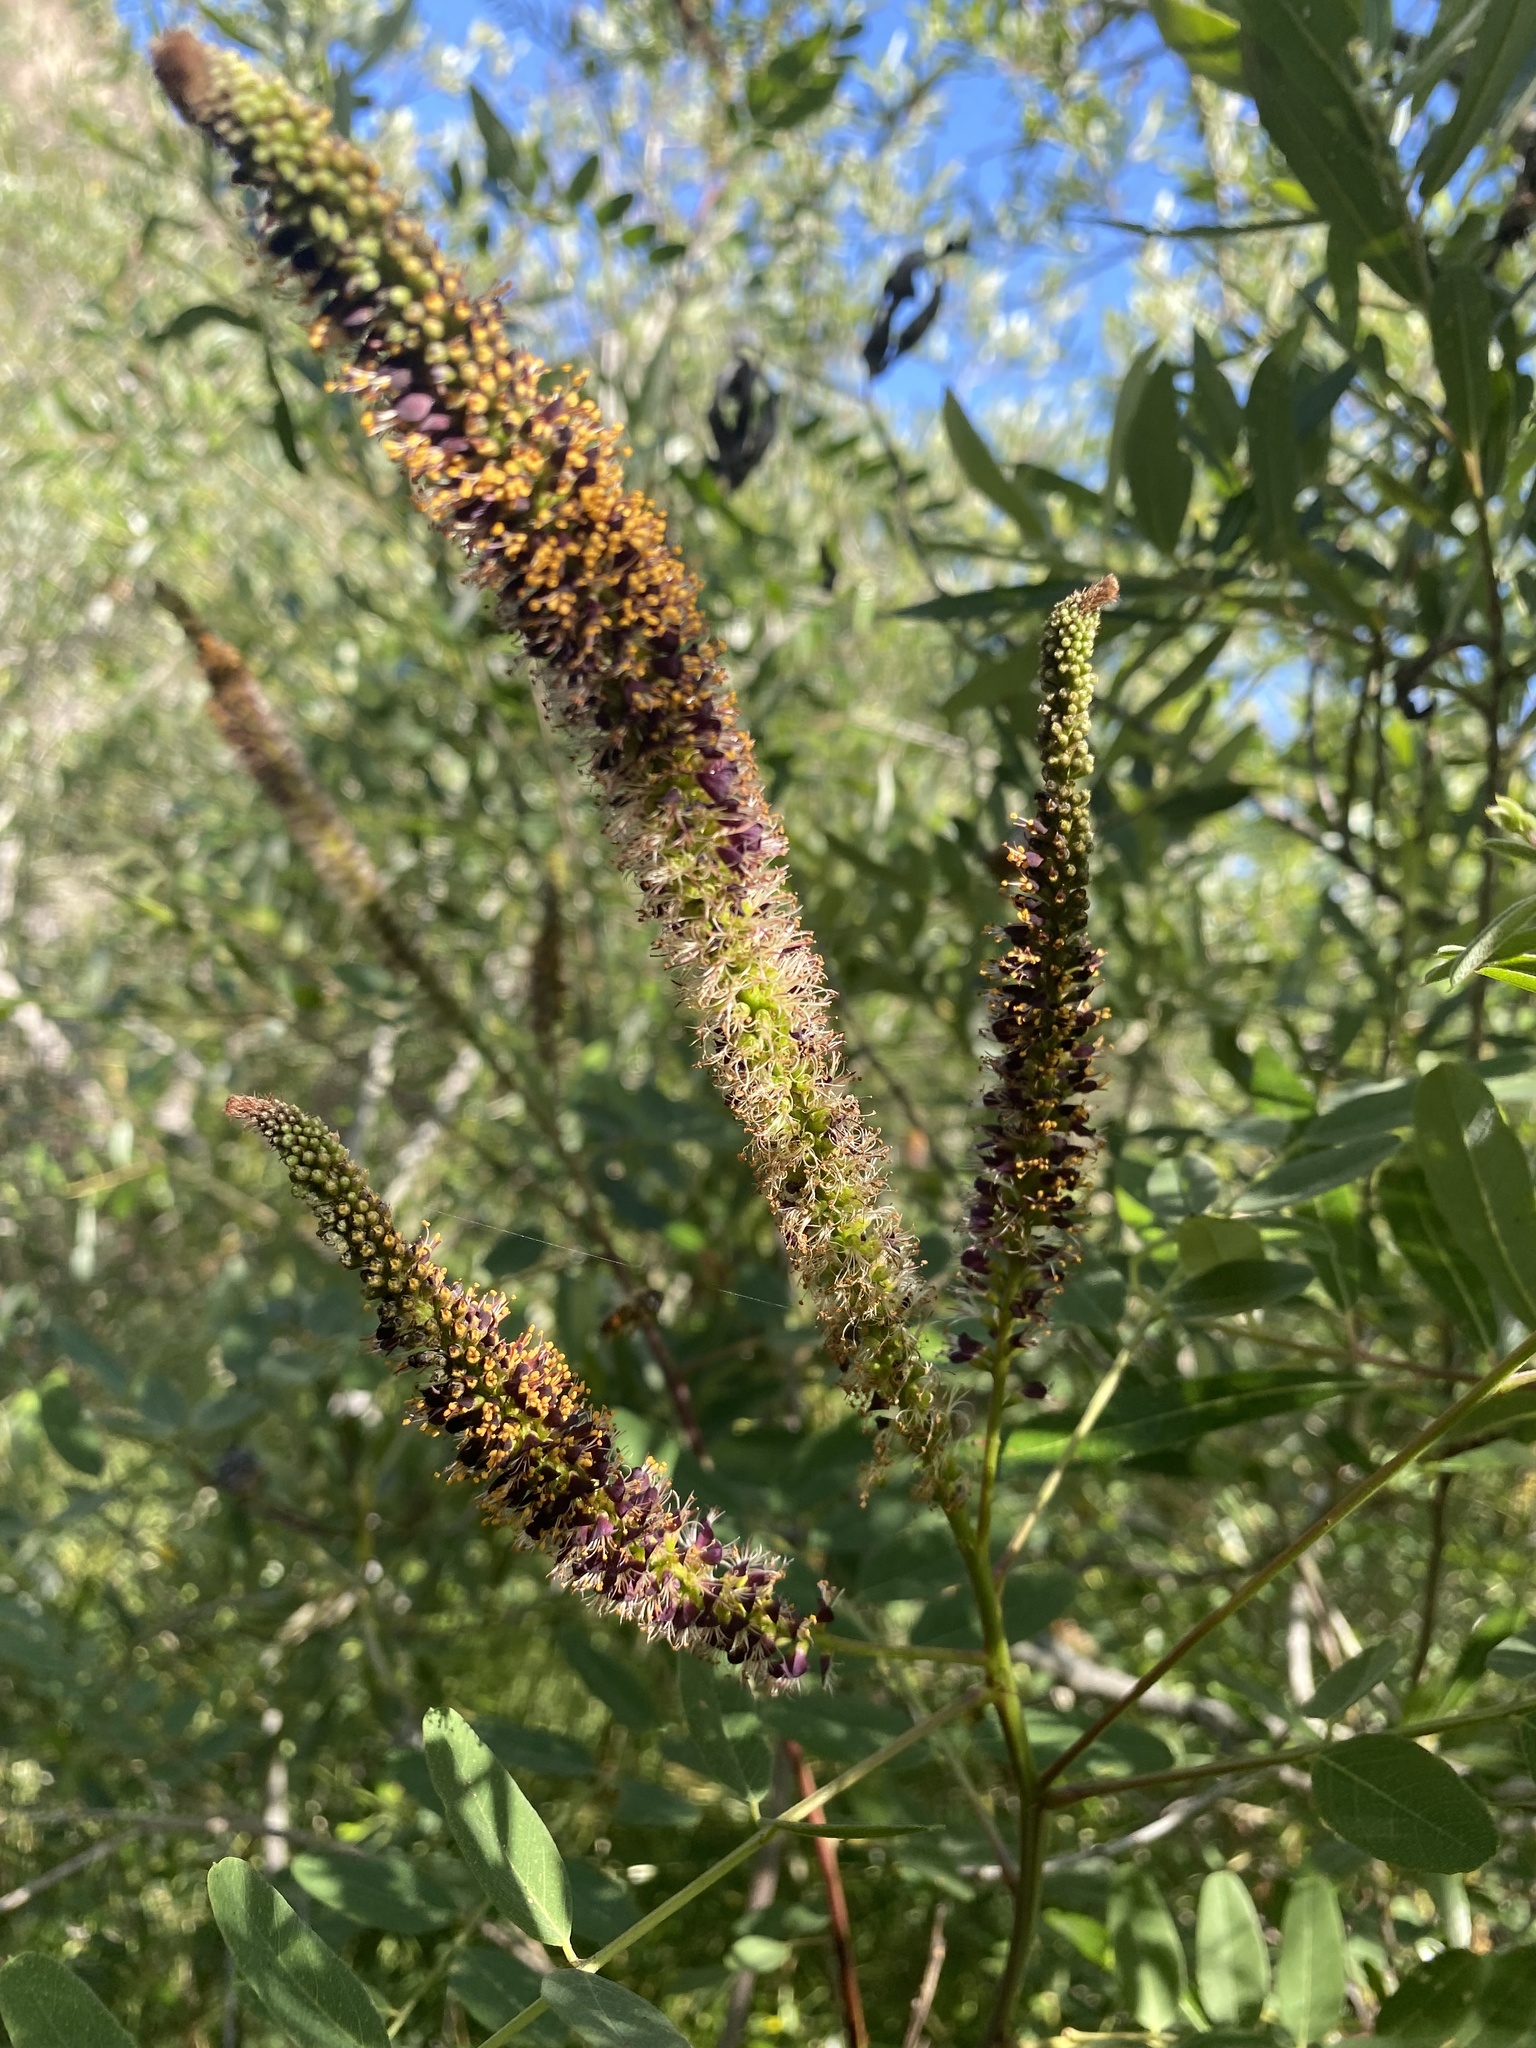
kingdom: Plantae
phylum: Tracheophyta
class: Magnoliopsida
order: Fabales
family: Fabaceae
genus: Amorpha
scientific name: Amorpha fruticosa
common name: False indigo
